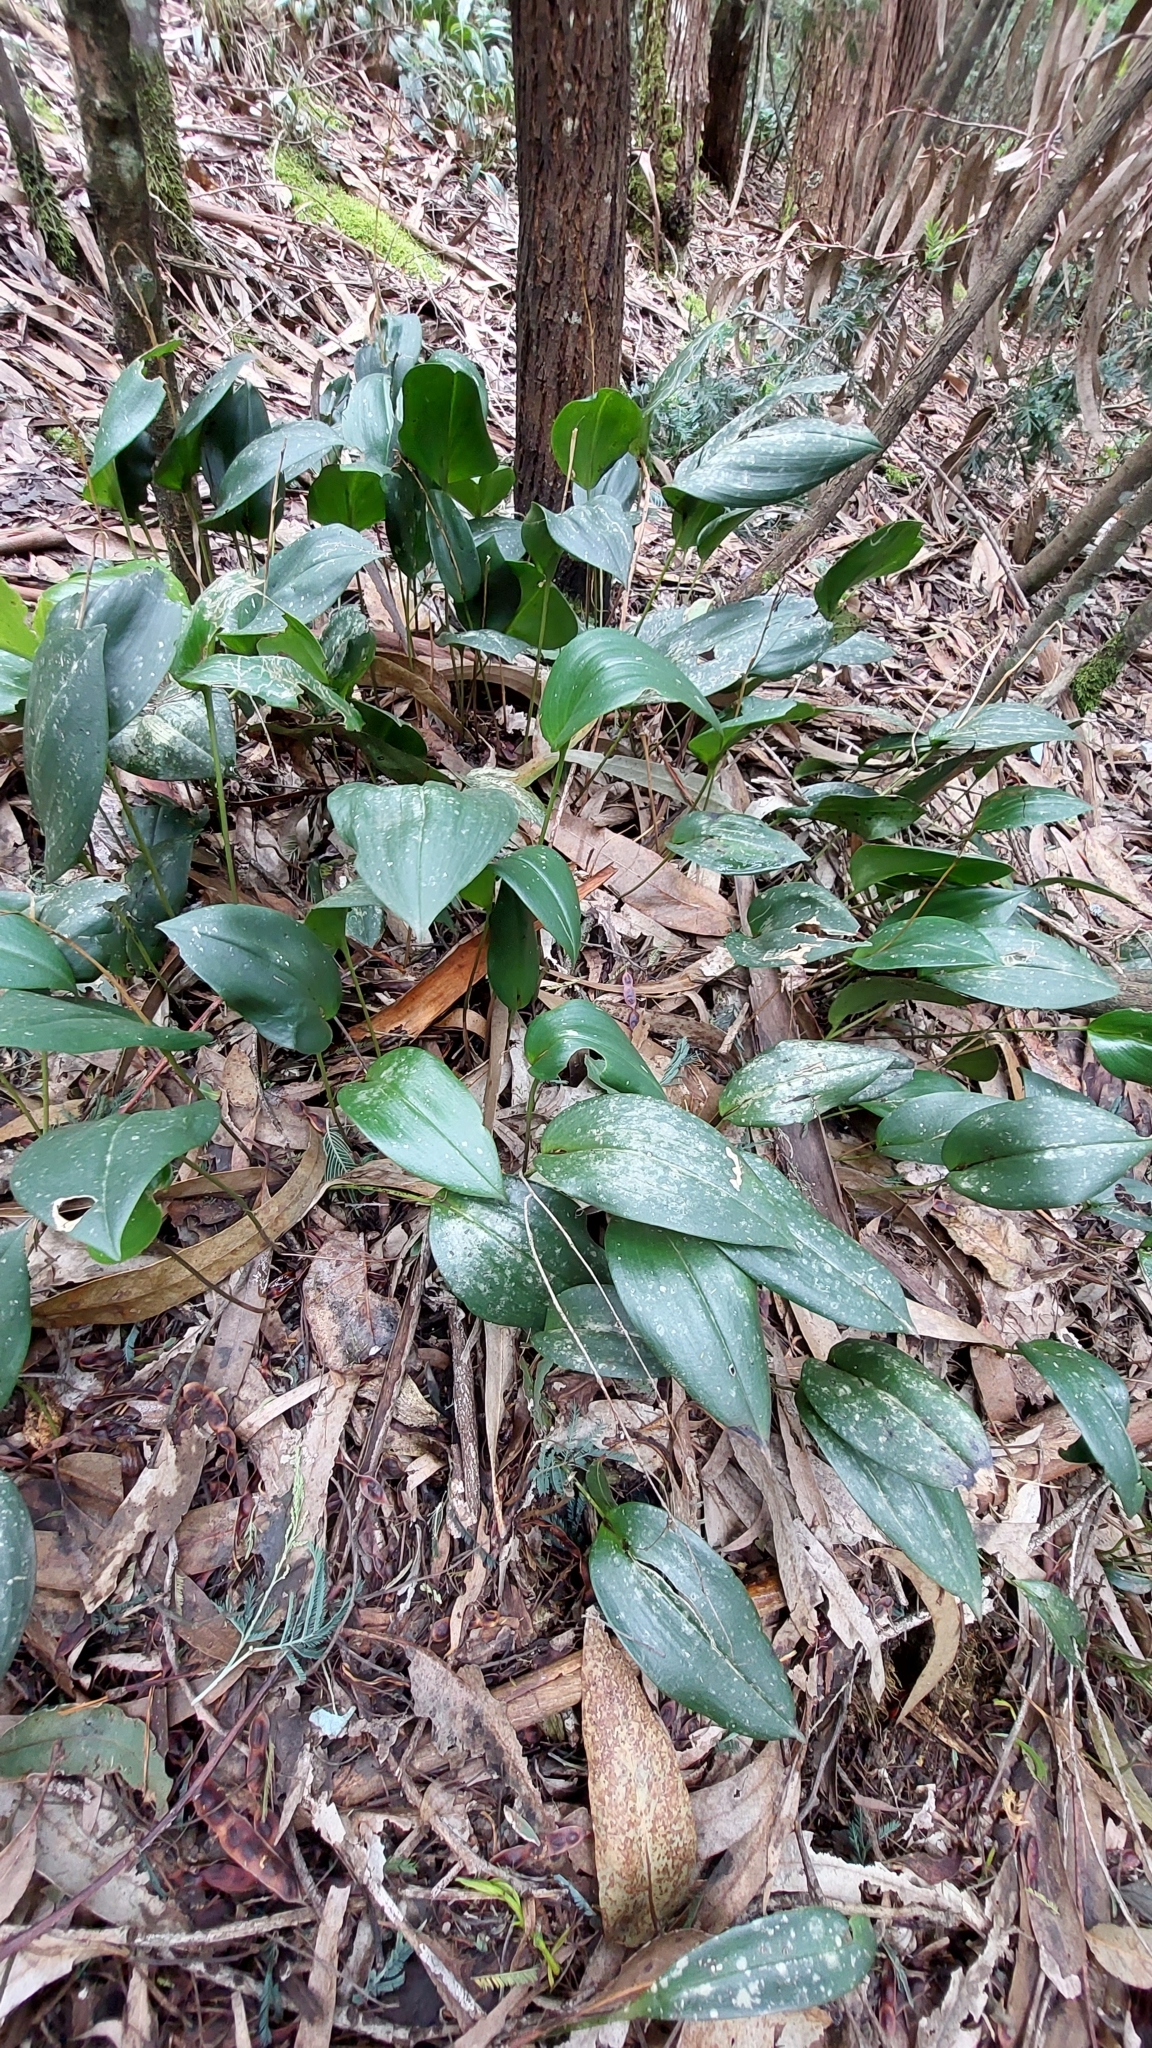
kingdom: Plantae
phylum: Tracheophyta
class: Liliopsida
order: Asparagales
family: Orchidaceae
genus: Pleurothallis
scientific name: Pleurothallis phalangifera
